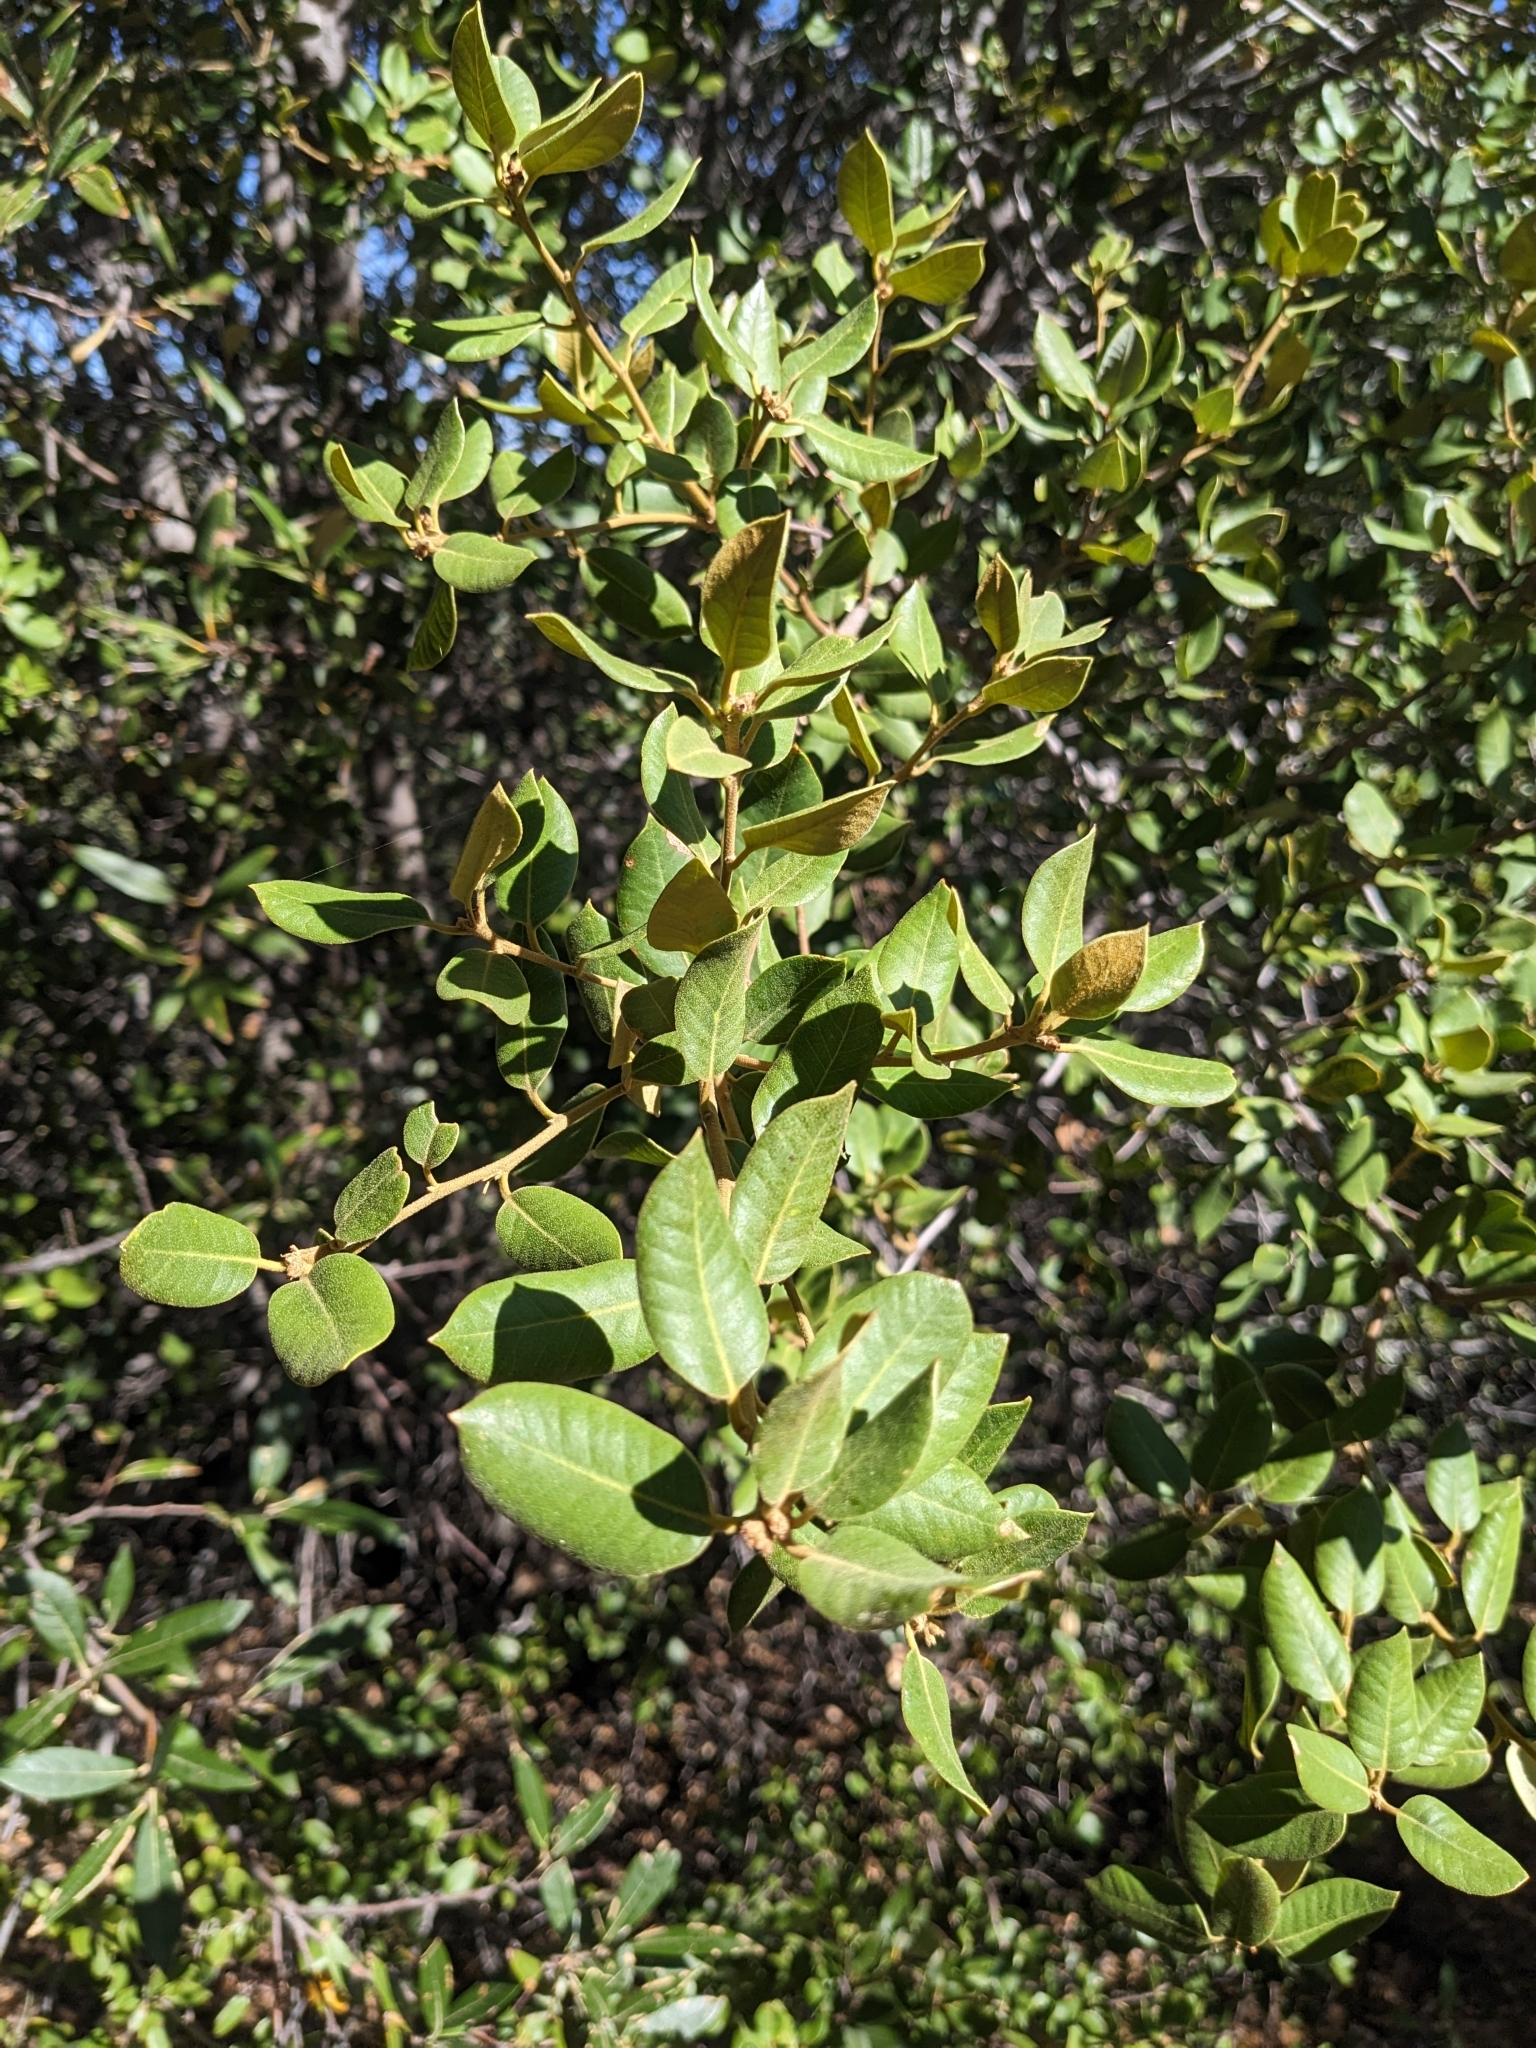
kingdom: Plantae
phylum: Tracheophyta
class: Magnoliopsida
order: Fagales
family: Fagaceae
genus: Quercus
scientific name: Quercus chrysolepis
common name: Canyon live oak
